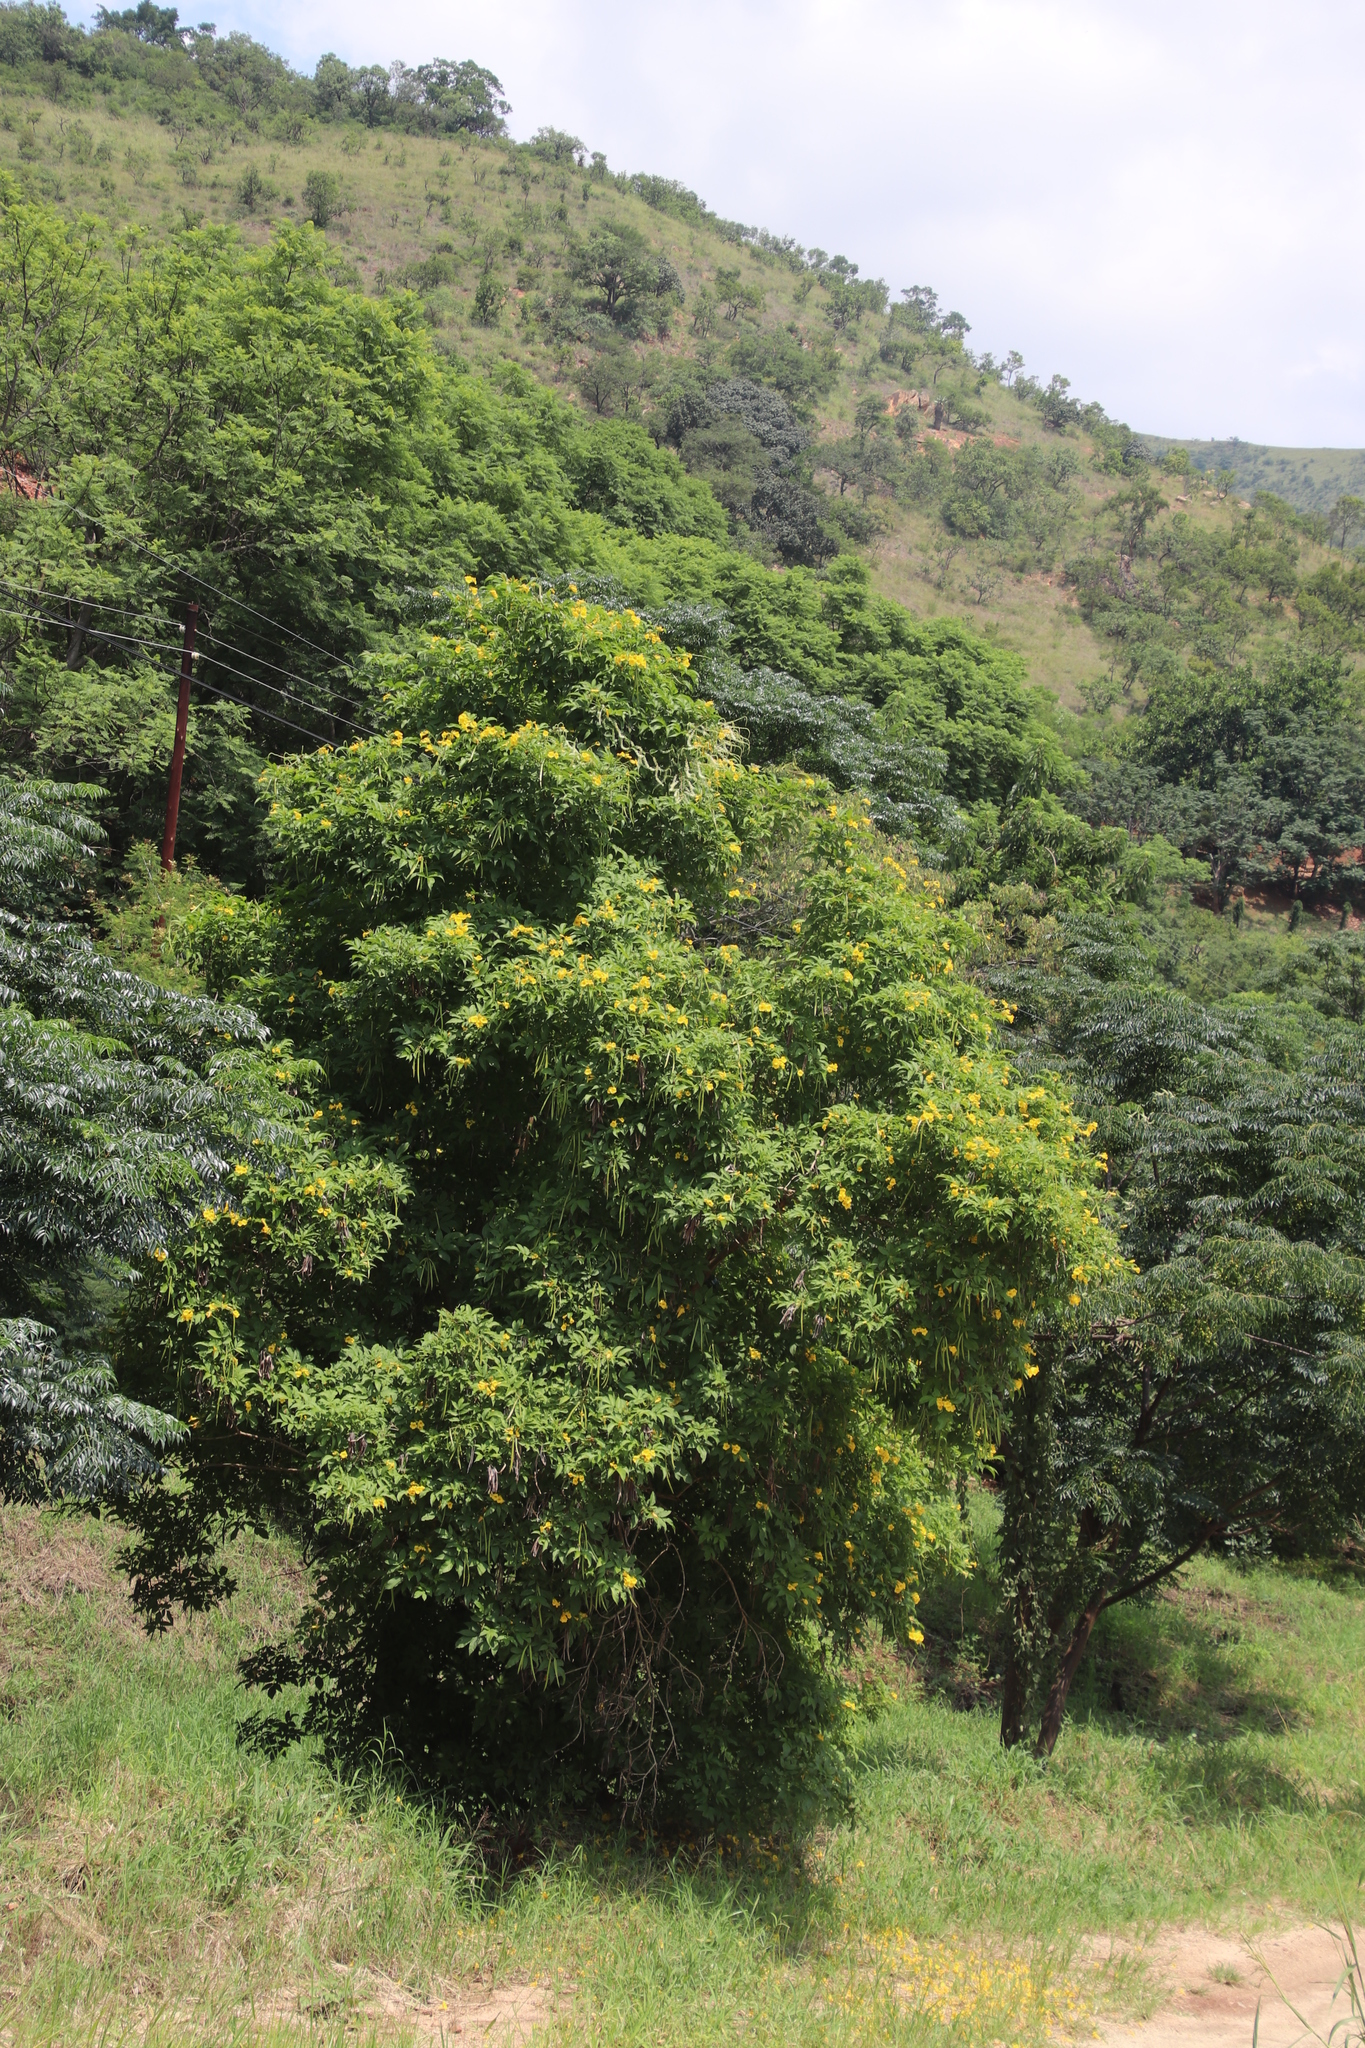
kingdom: Plantae
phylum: Tracheophyta
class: Magnoliopsida
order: Lamiales
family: Bignoniaceae
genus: Tecoma
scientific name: Tecoma stans
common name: Yellow trumpetbush
